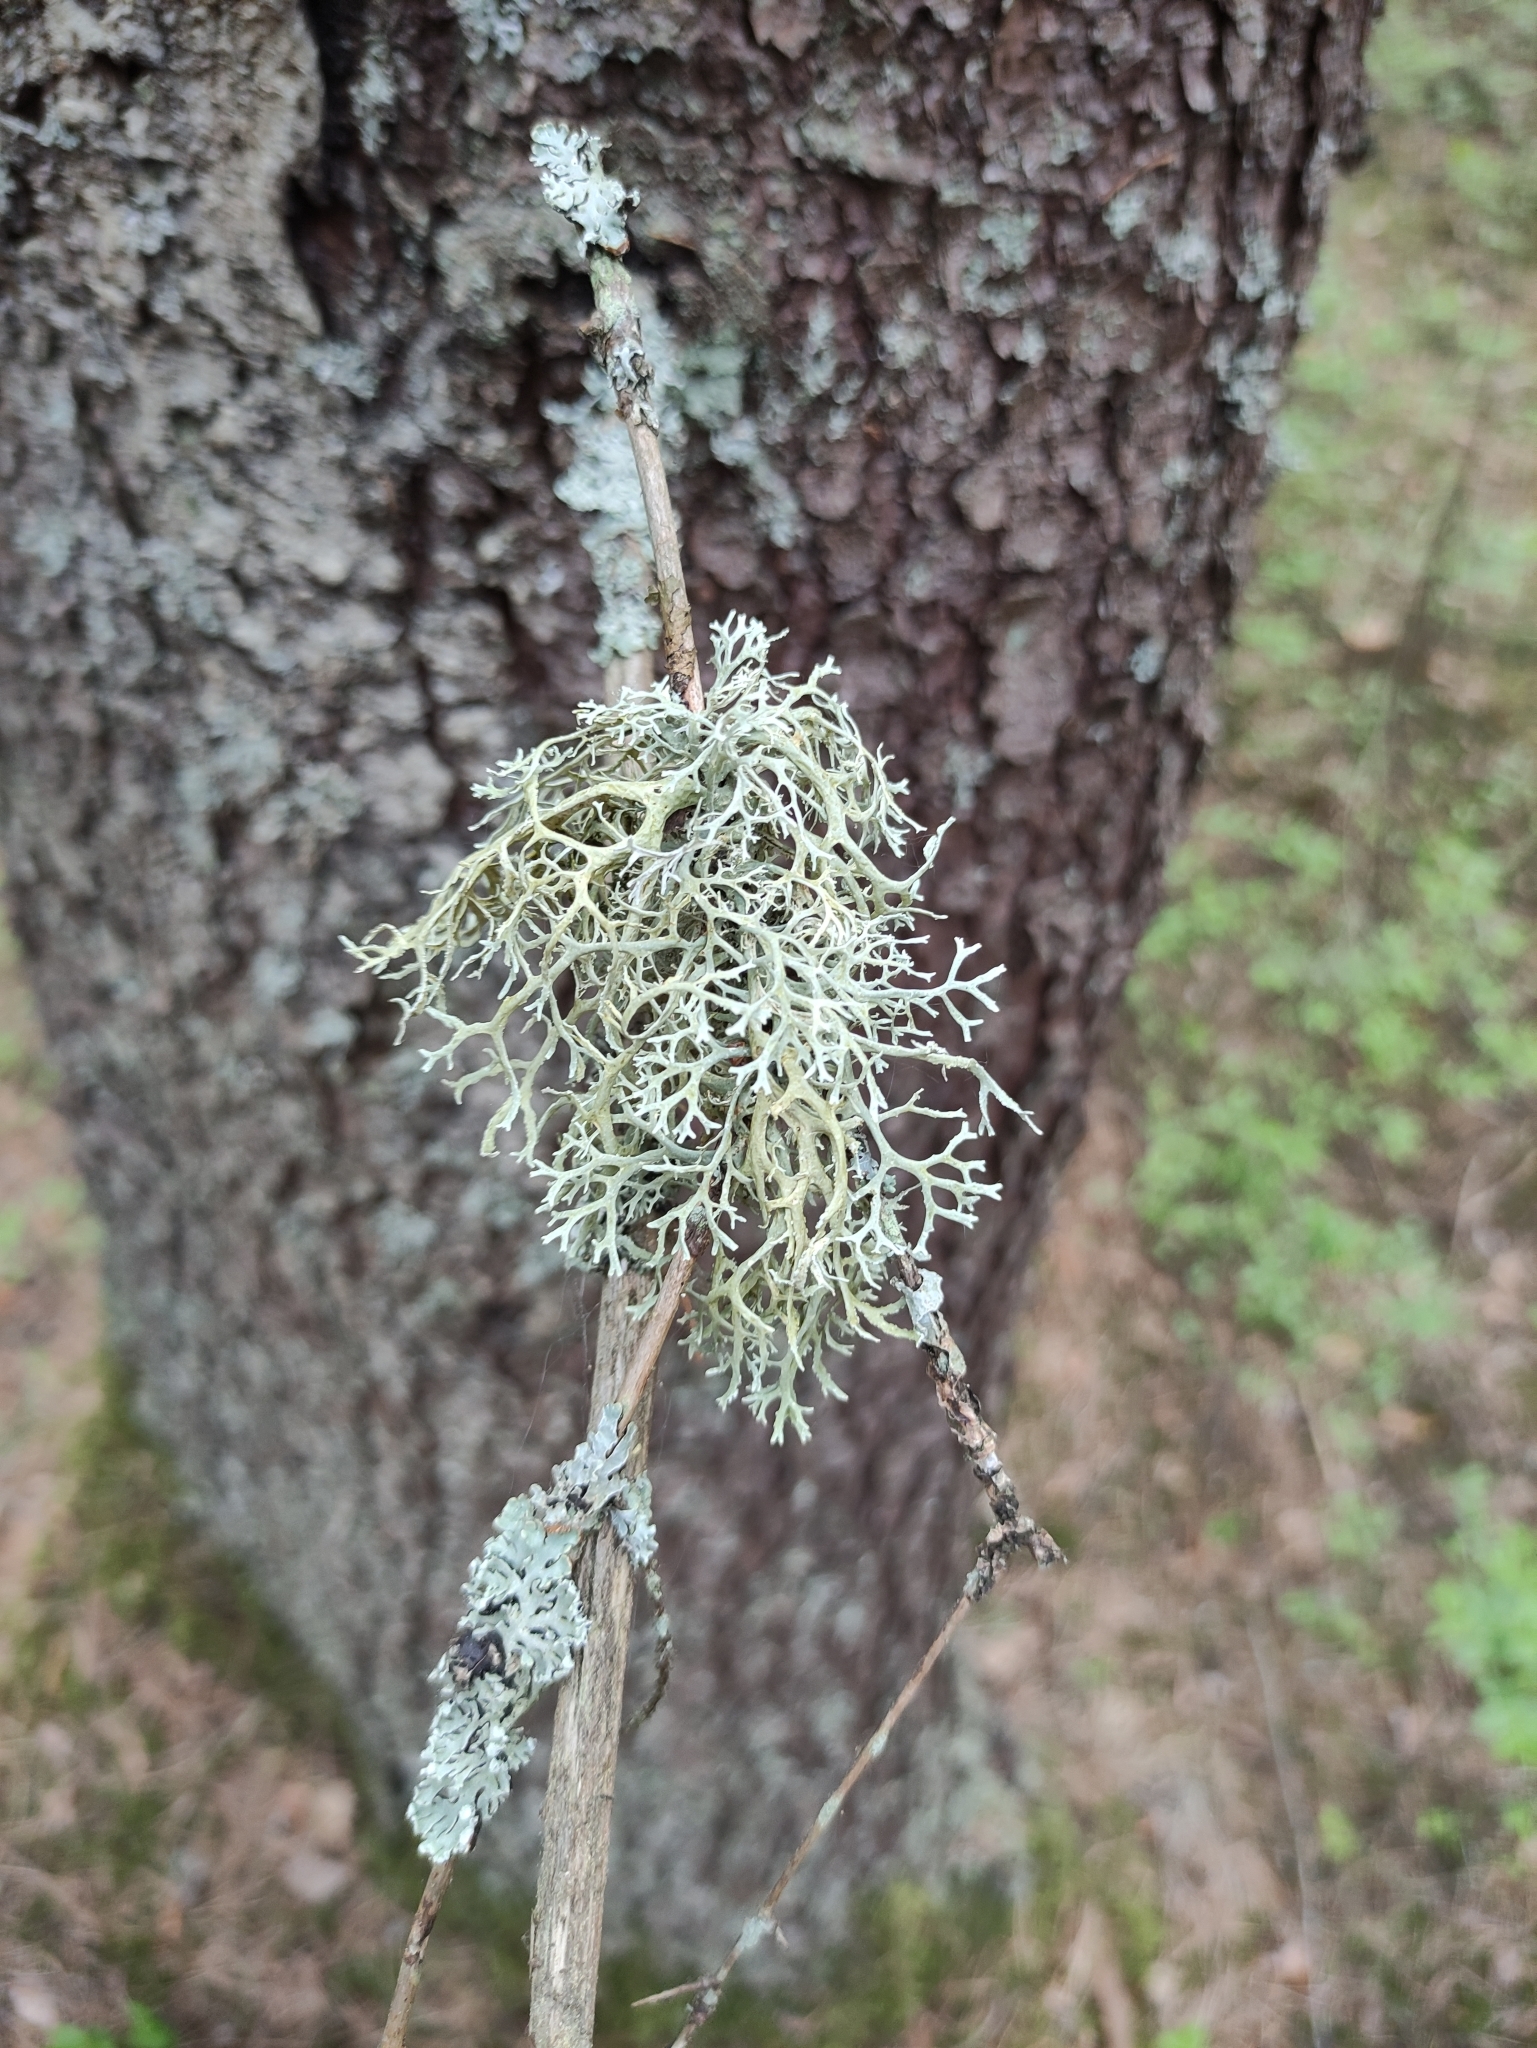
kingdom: Fungi
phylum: Ascomycota
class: Lecanoromycetes
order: Lecanorales
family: Parmeliaceae
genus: Evernia
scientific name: Evernia prunastri
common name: Oak moss
